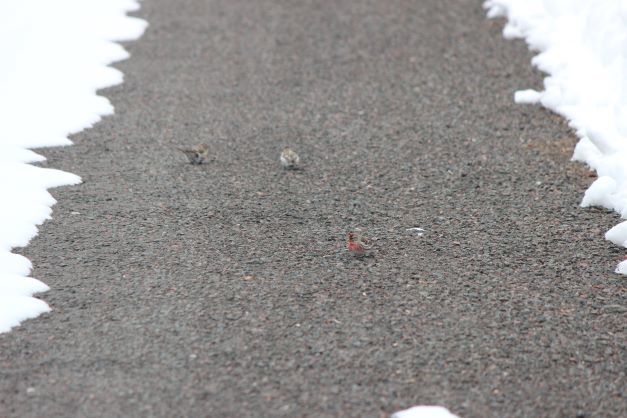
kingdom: Animalia
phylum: Chordata
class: Aves
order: Passeriformes
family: Fringillidae
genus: Acanthis
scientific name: Acanthis flammea
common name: Common redpoll
